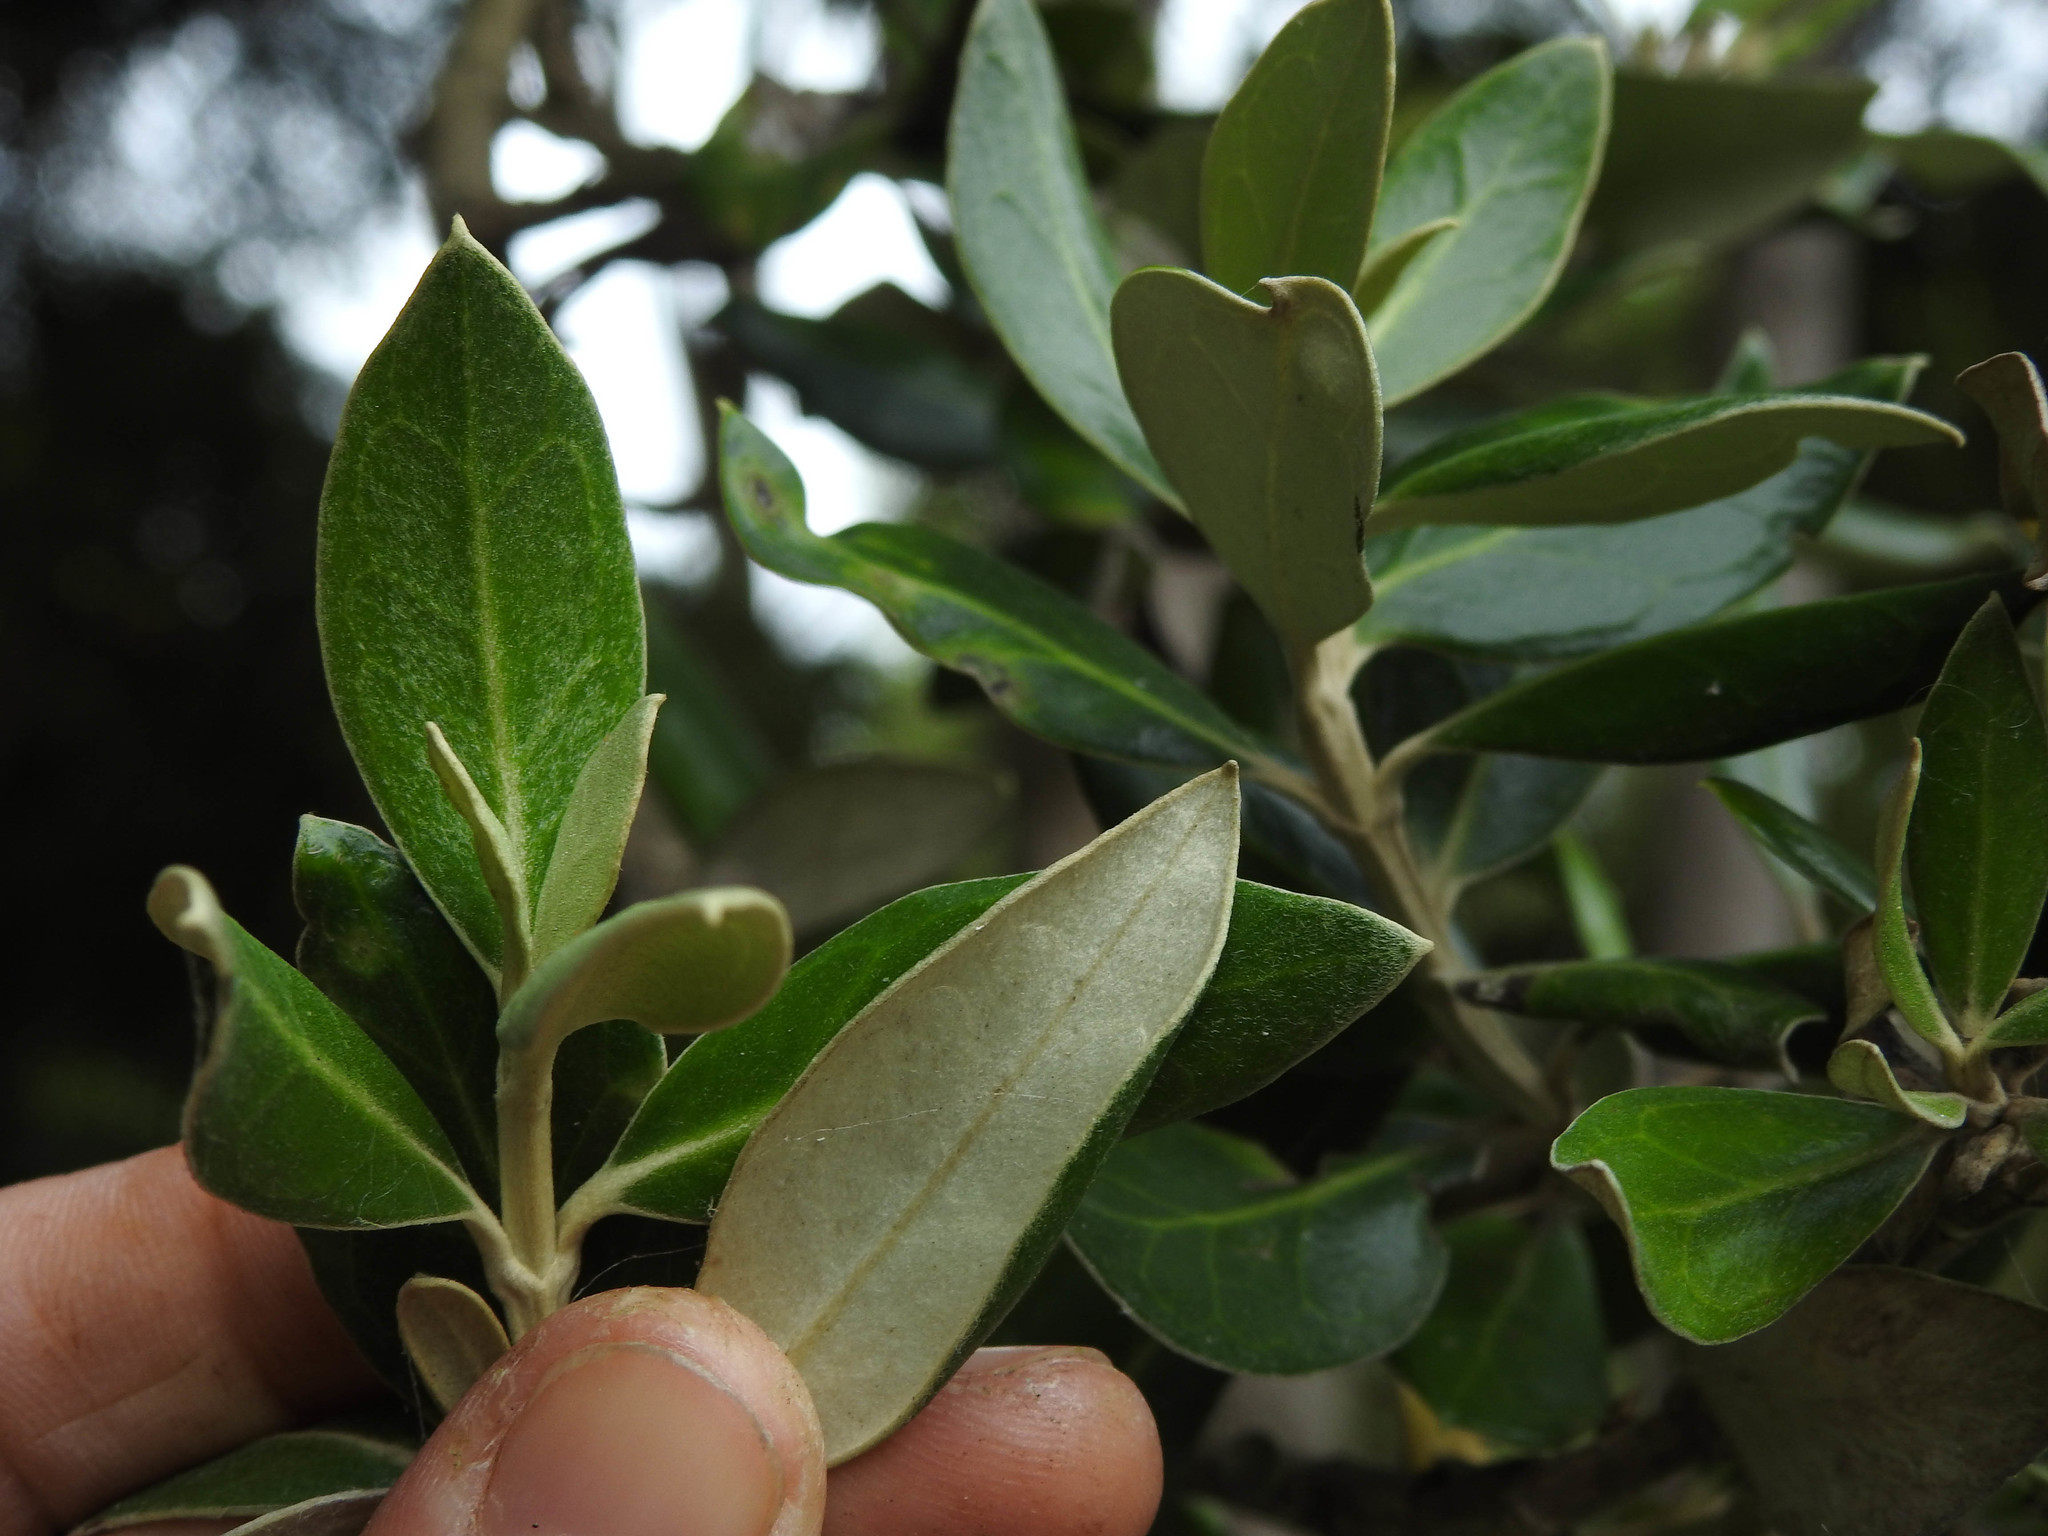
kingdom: Plantae
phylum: Tracheophyta
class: Magnoliopsida
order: Asterales
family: Asteraceae
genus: Olearia
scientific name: Olearia traversiorum
